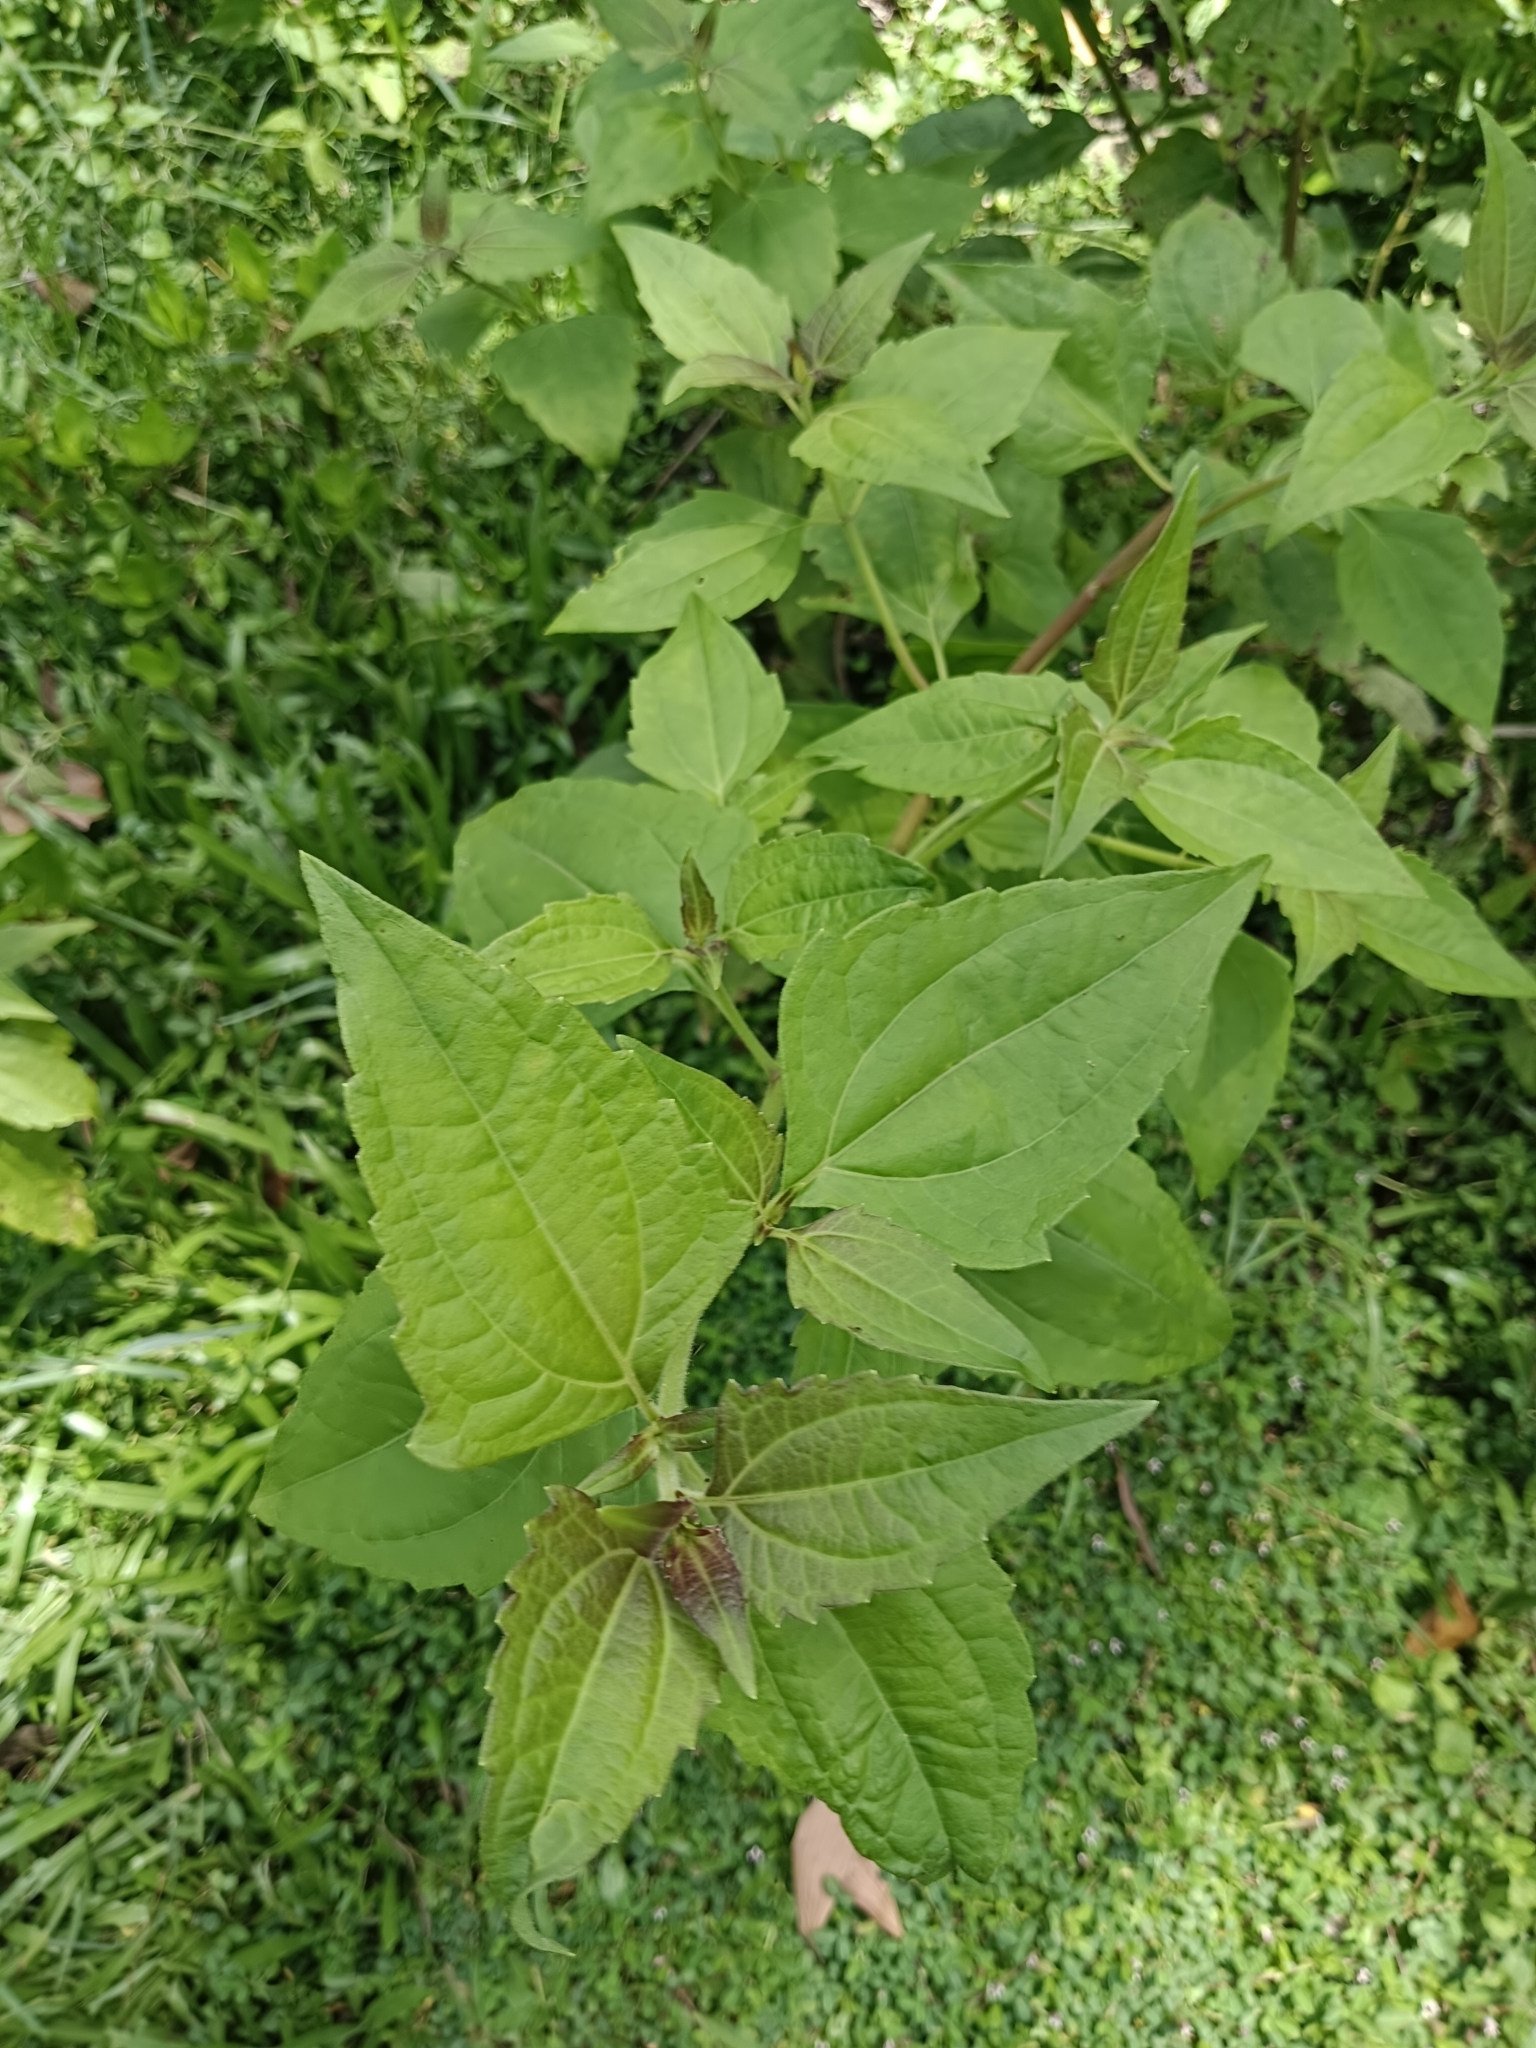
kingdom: Plantae
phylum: Tracheophyta
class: Magnoliopsida
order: Asterales
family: Asteraceae
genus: Chromolaena
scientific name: Chromolaena odorata
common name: Siamweed
